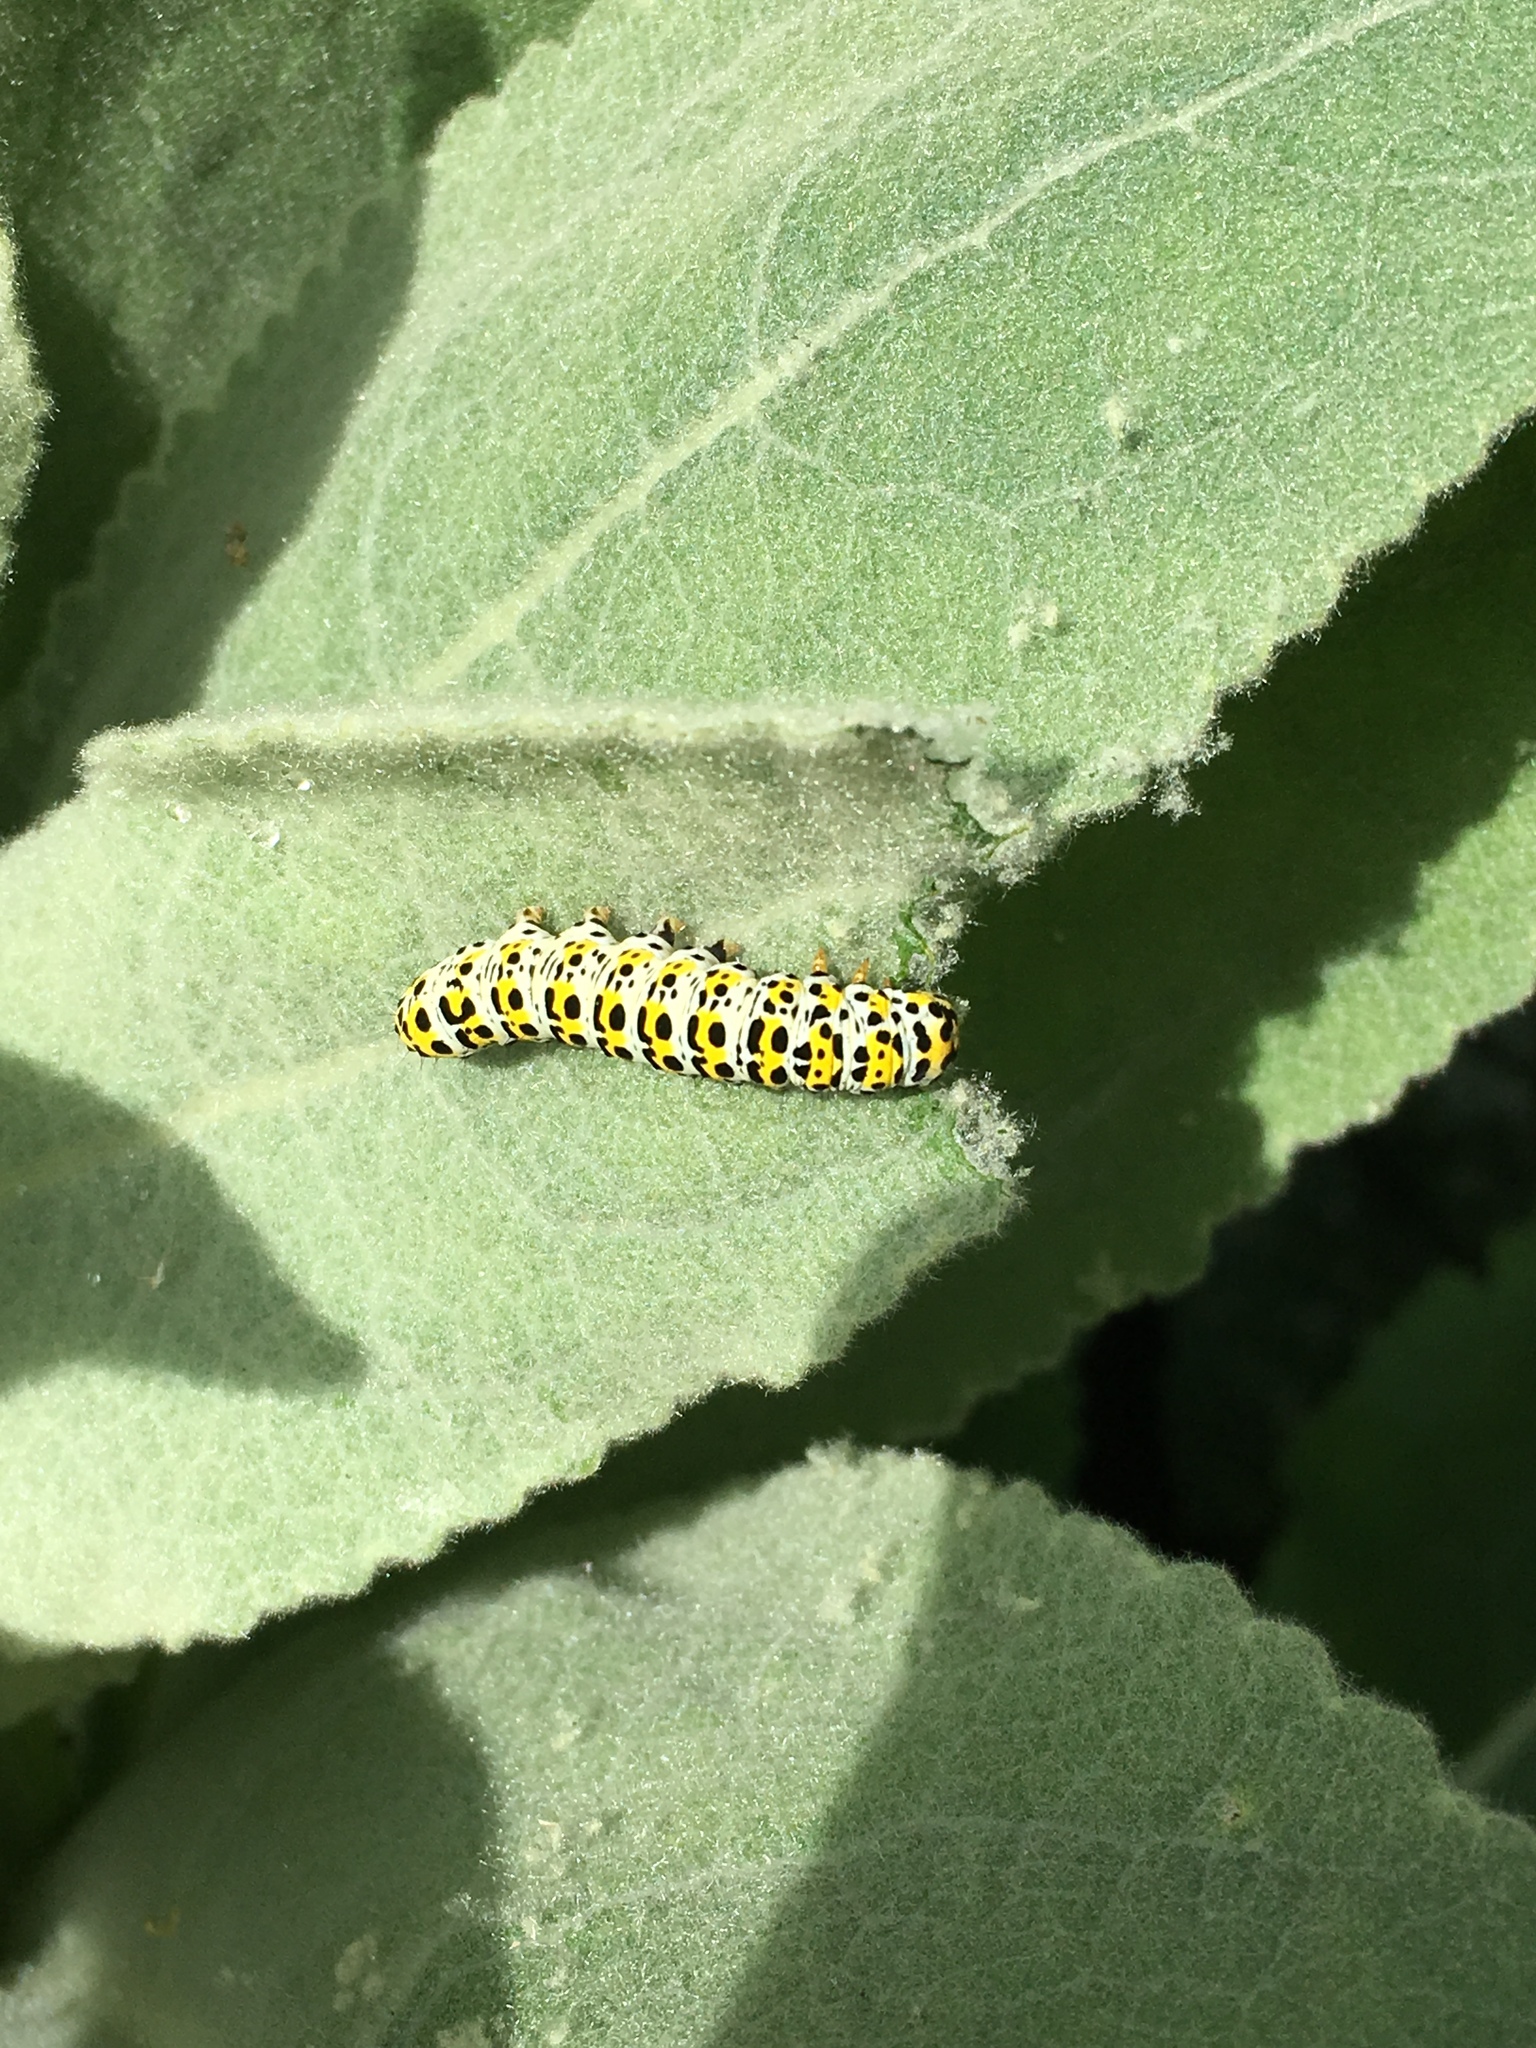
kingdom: Animalia
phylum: Arthropoda
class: Insecta
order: Lepidoptera
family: Noctuidae
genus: Cucullia
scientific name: Cucullia verbasci
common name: Mullein
